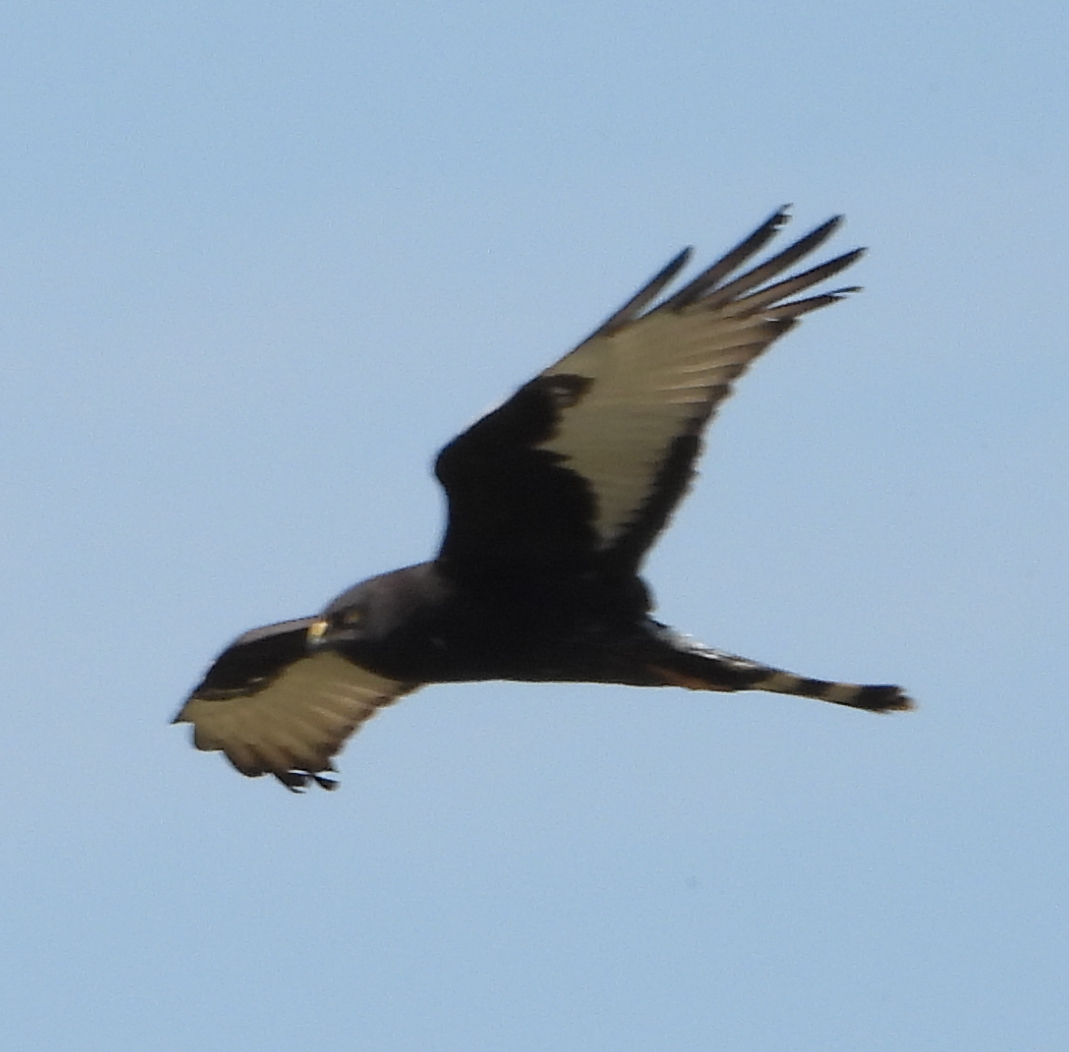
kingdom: Animalia
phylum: Chordata
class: Aves
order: Accipitriformes
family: Accipitridae
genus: Circus
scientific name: Circus maurus
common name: Black harrier
